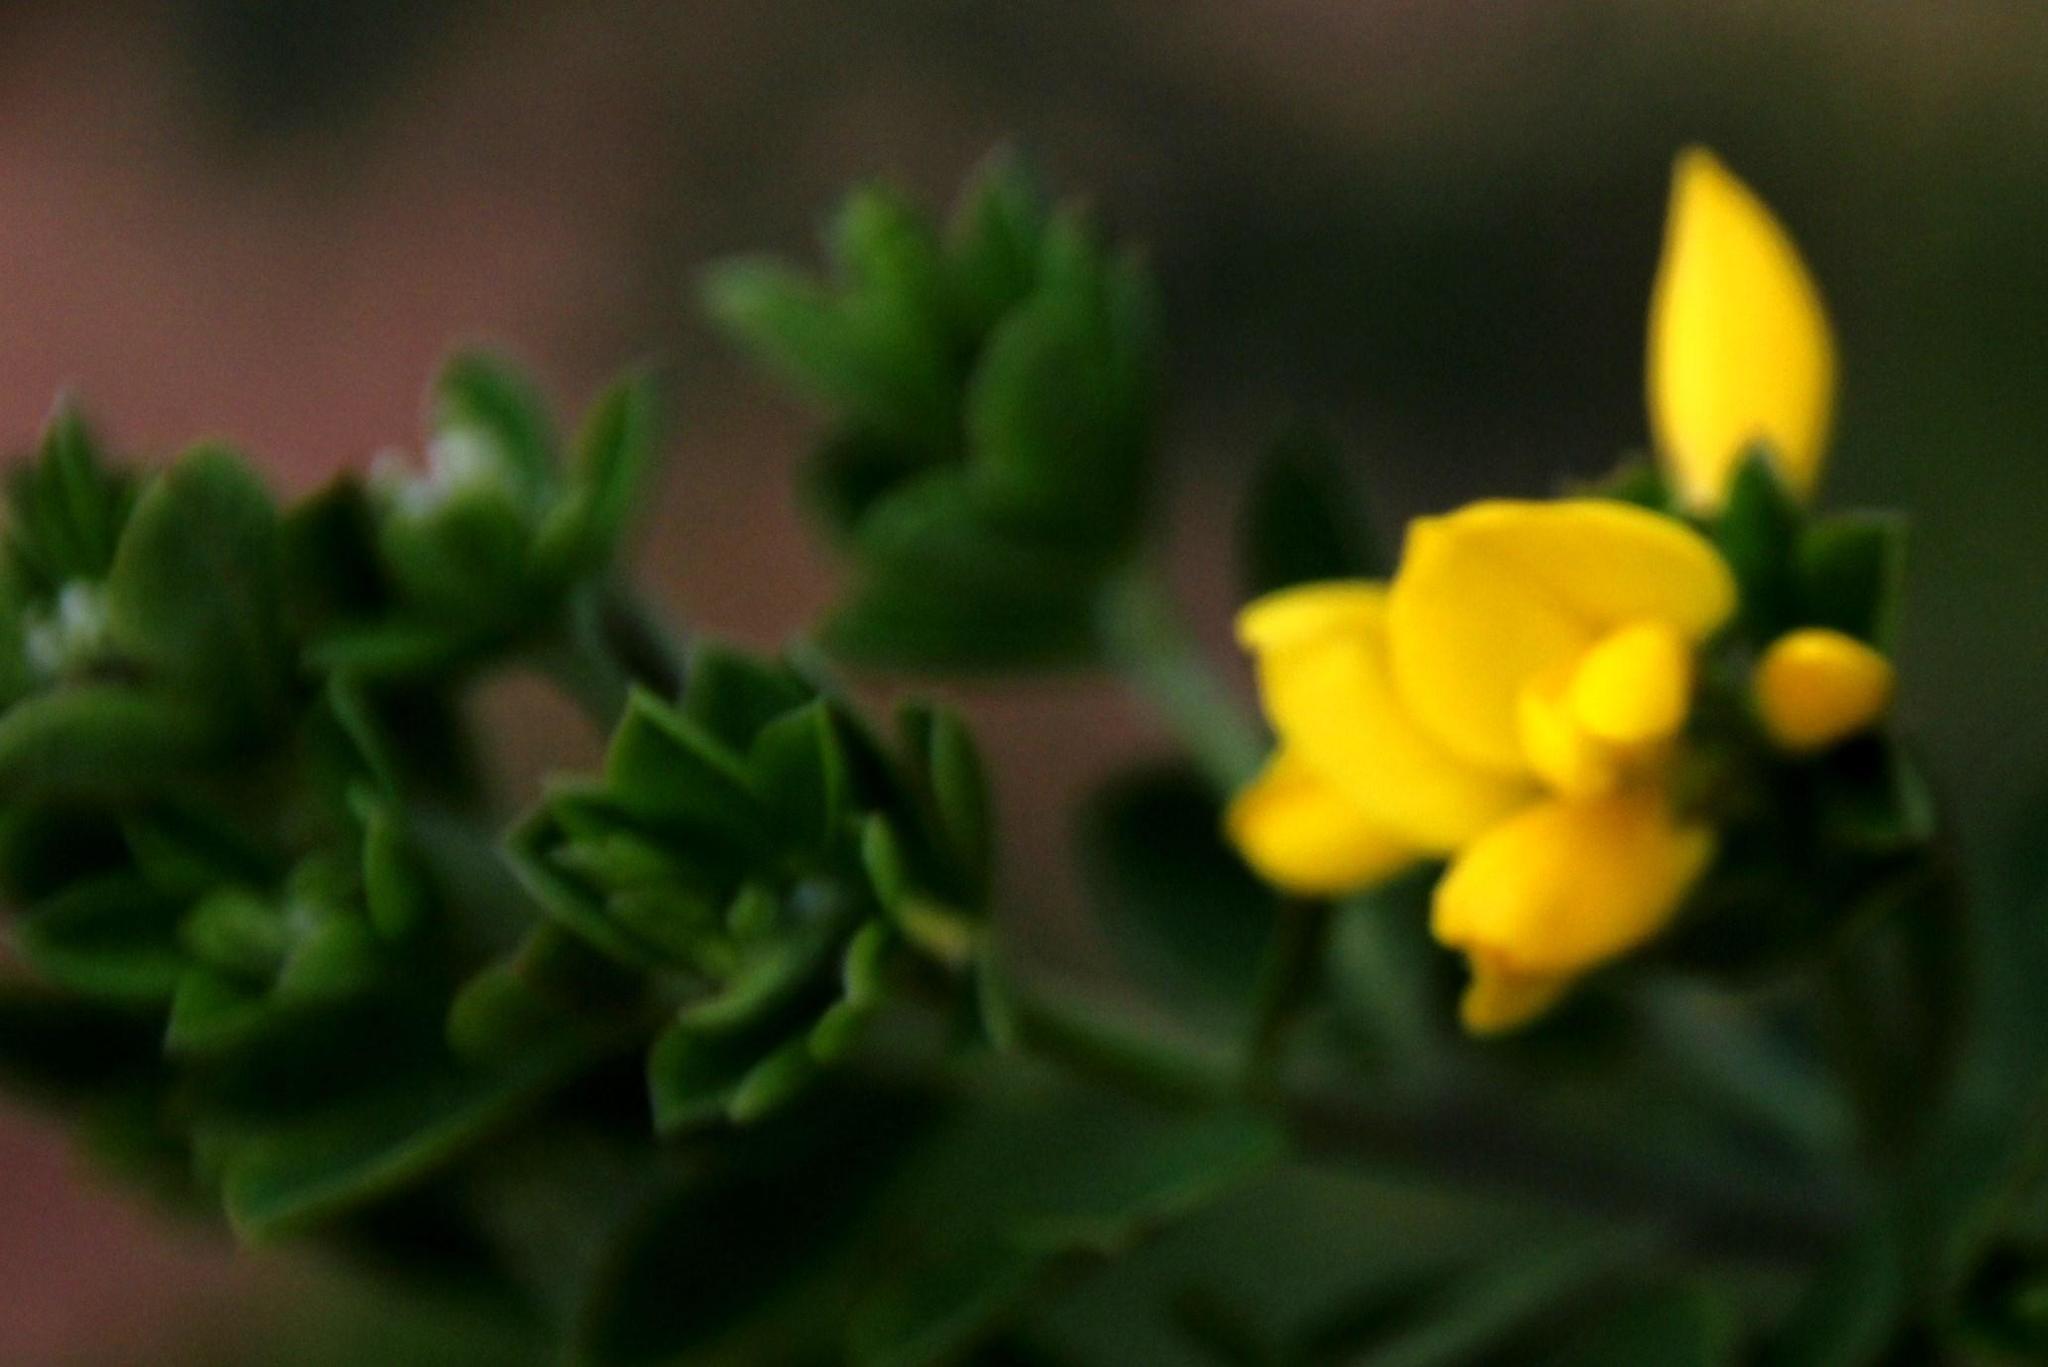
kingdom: Plantae
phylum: Tracheophyta
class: Magnoliopsida
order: Fabales
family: Fabaceae
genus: Genista
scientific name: Genista monspessulana
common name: Montpellier broom
